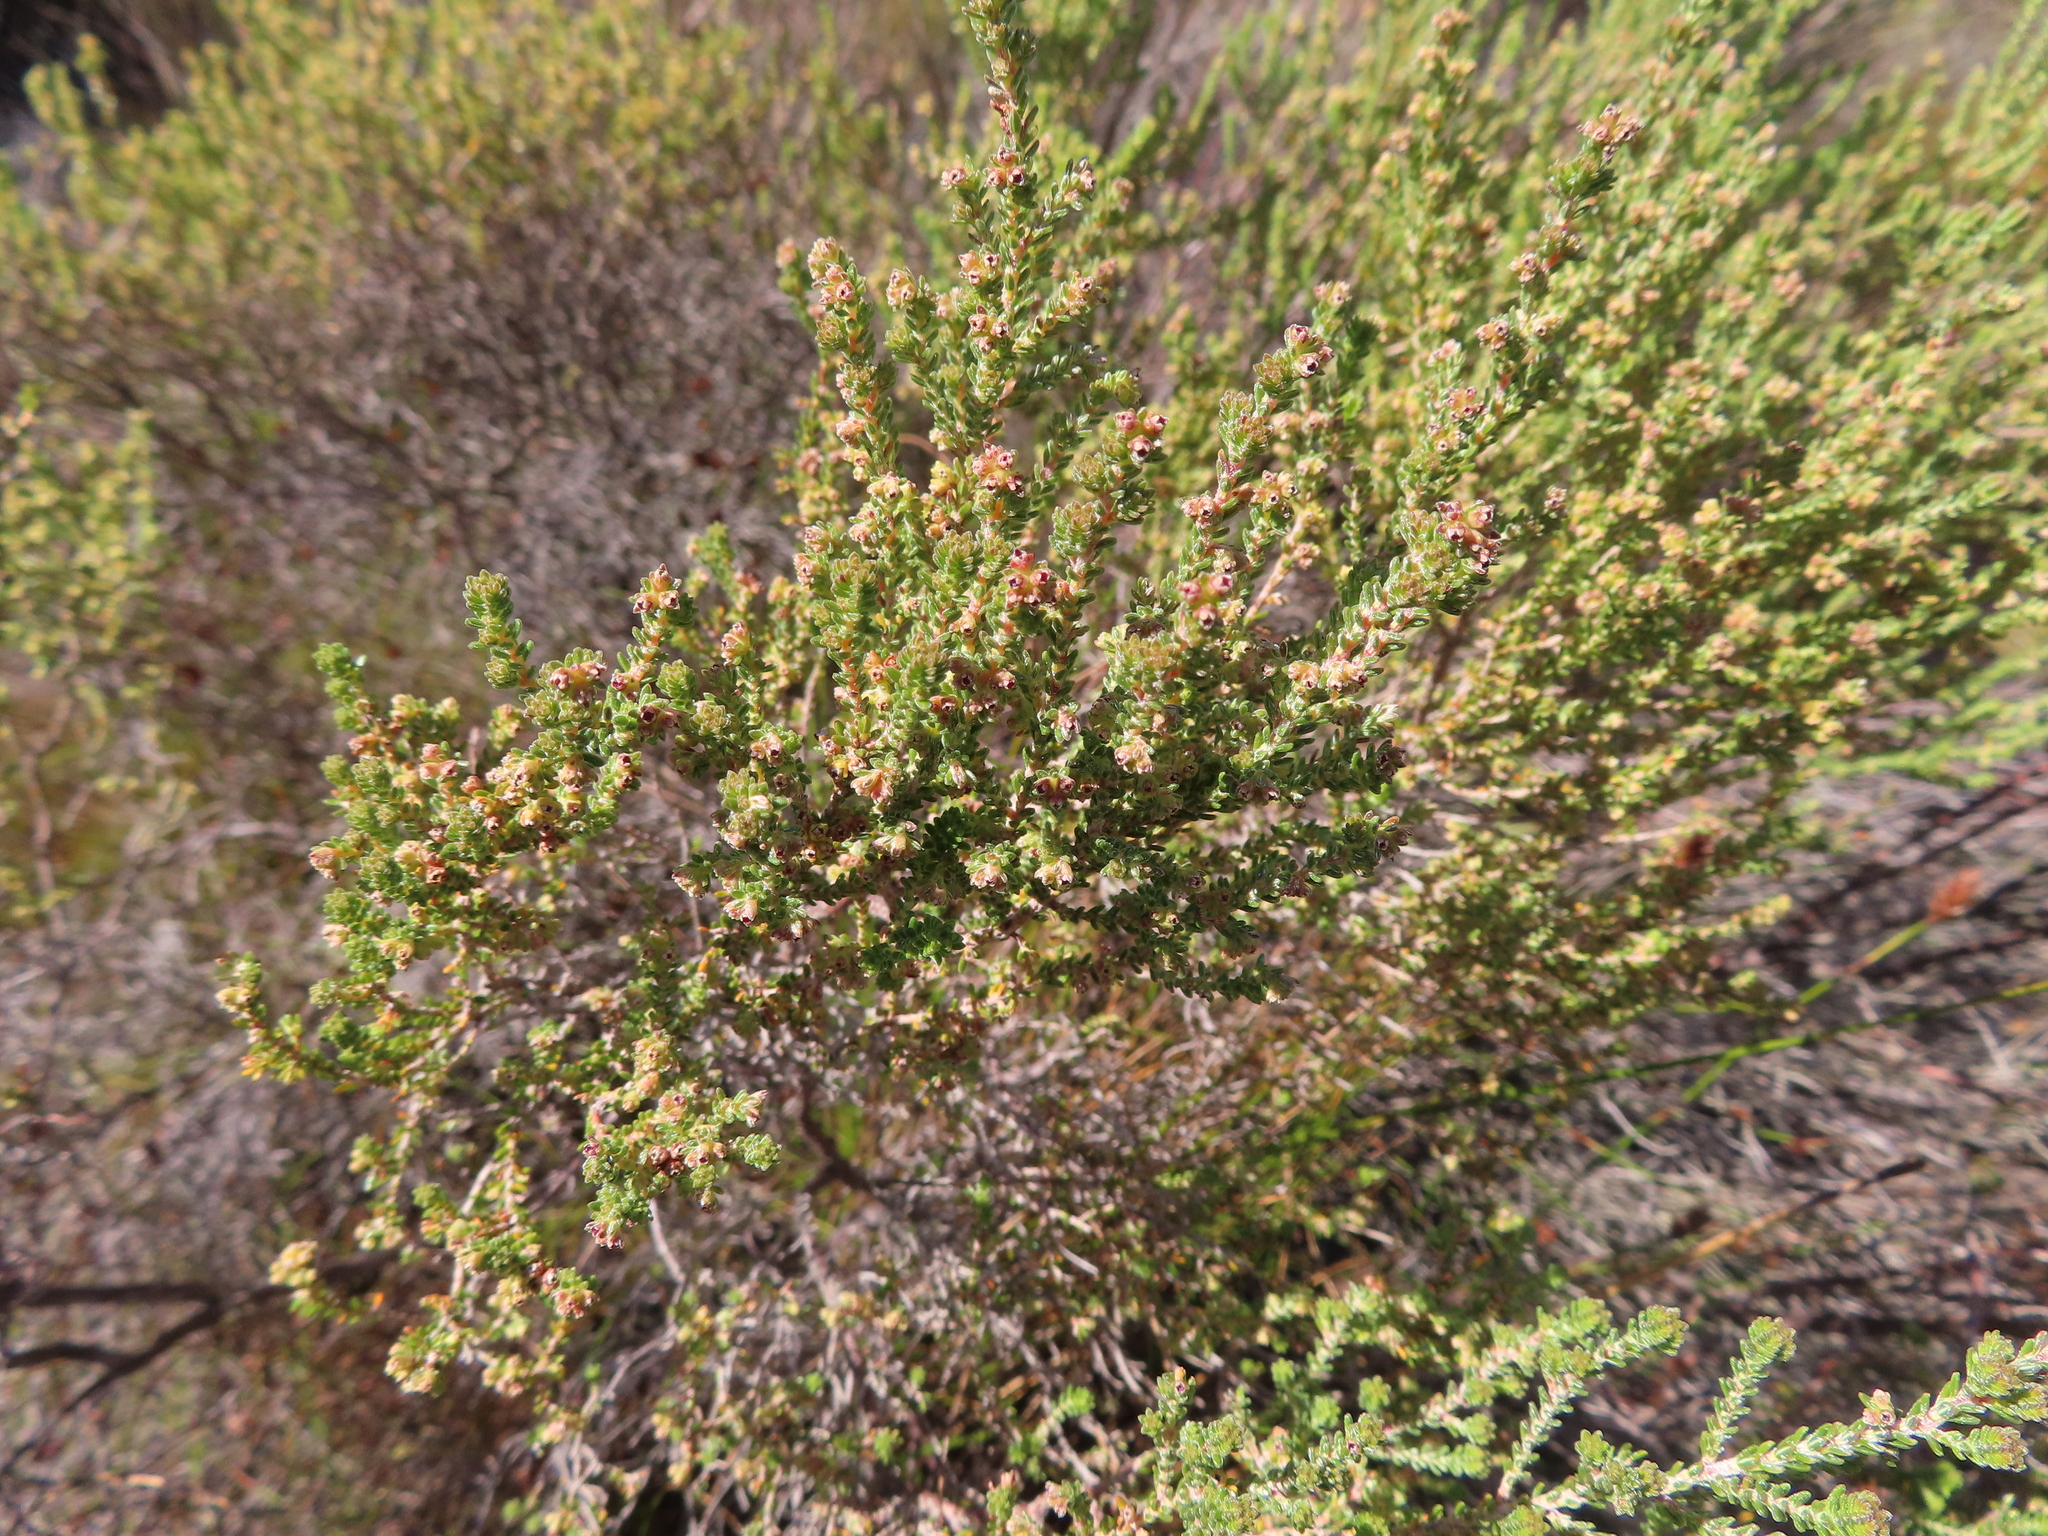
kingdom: Plantae
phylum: Tracheophyta
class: Magnoliopsida
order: Ericales
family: Ericaceae
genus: Erica
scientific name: Erica serrata
